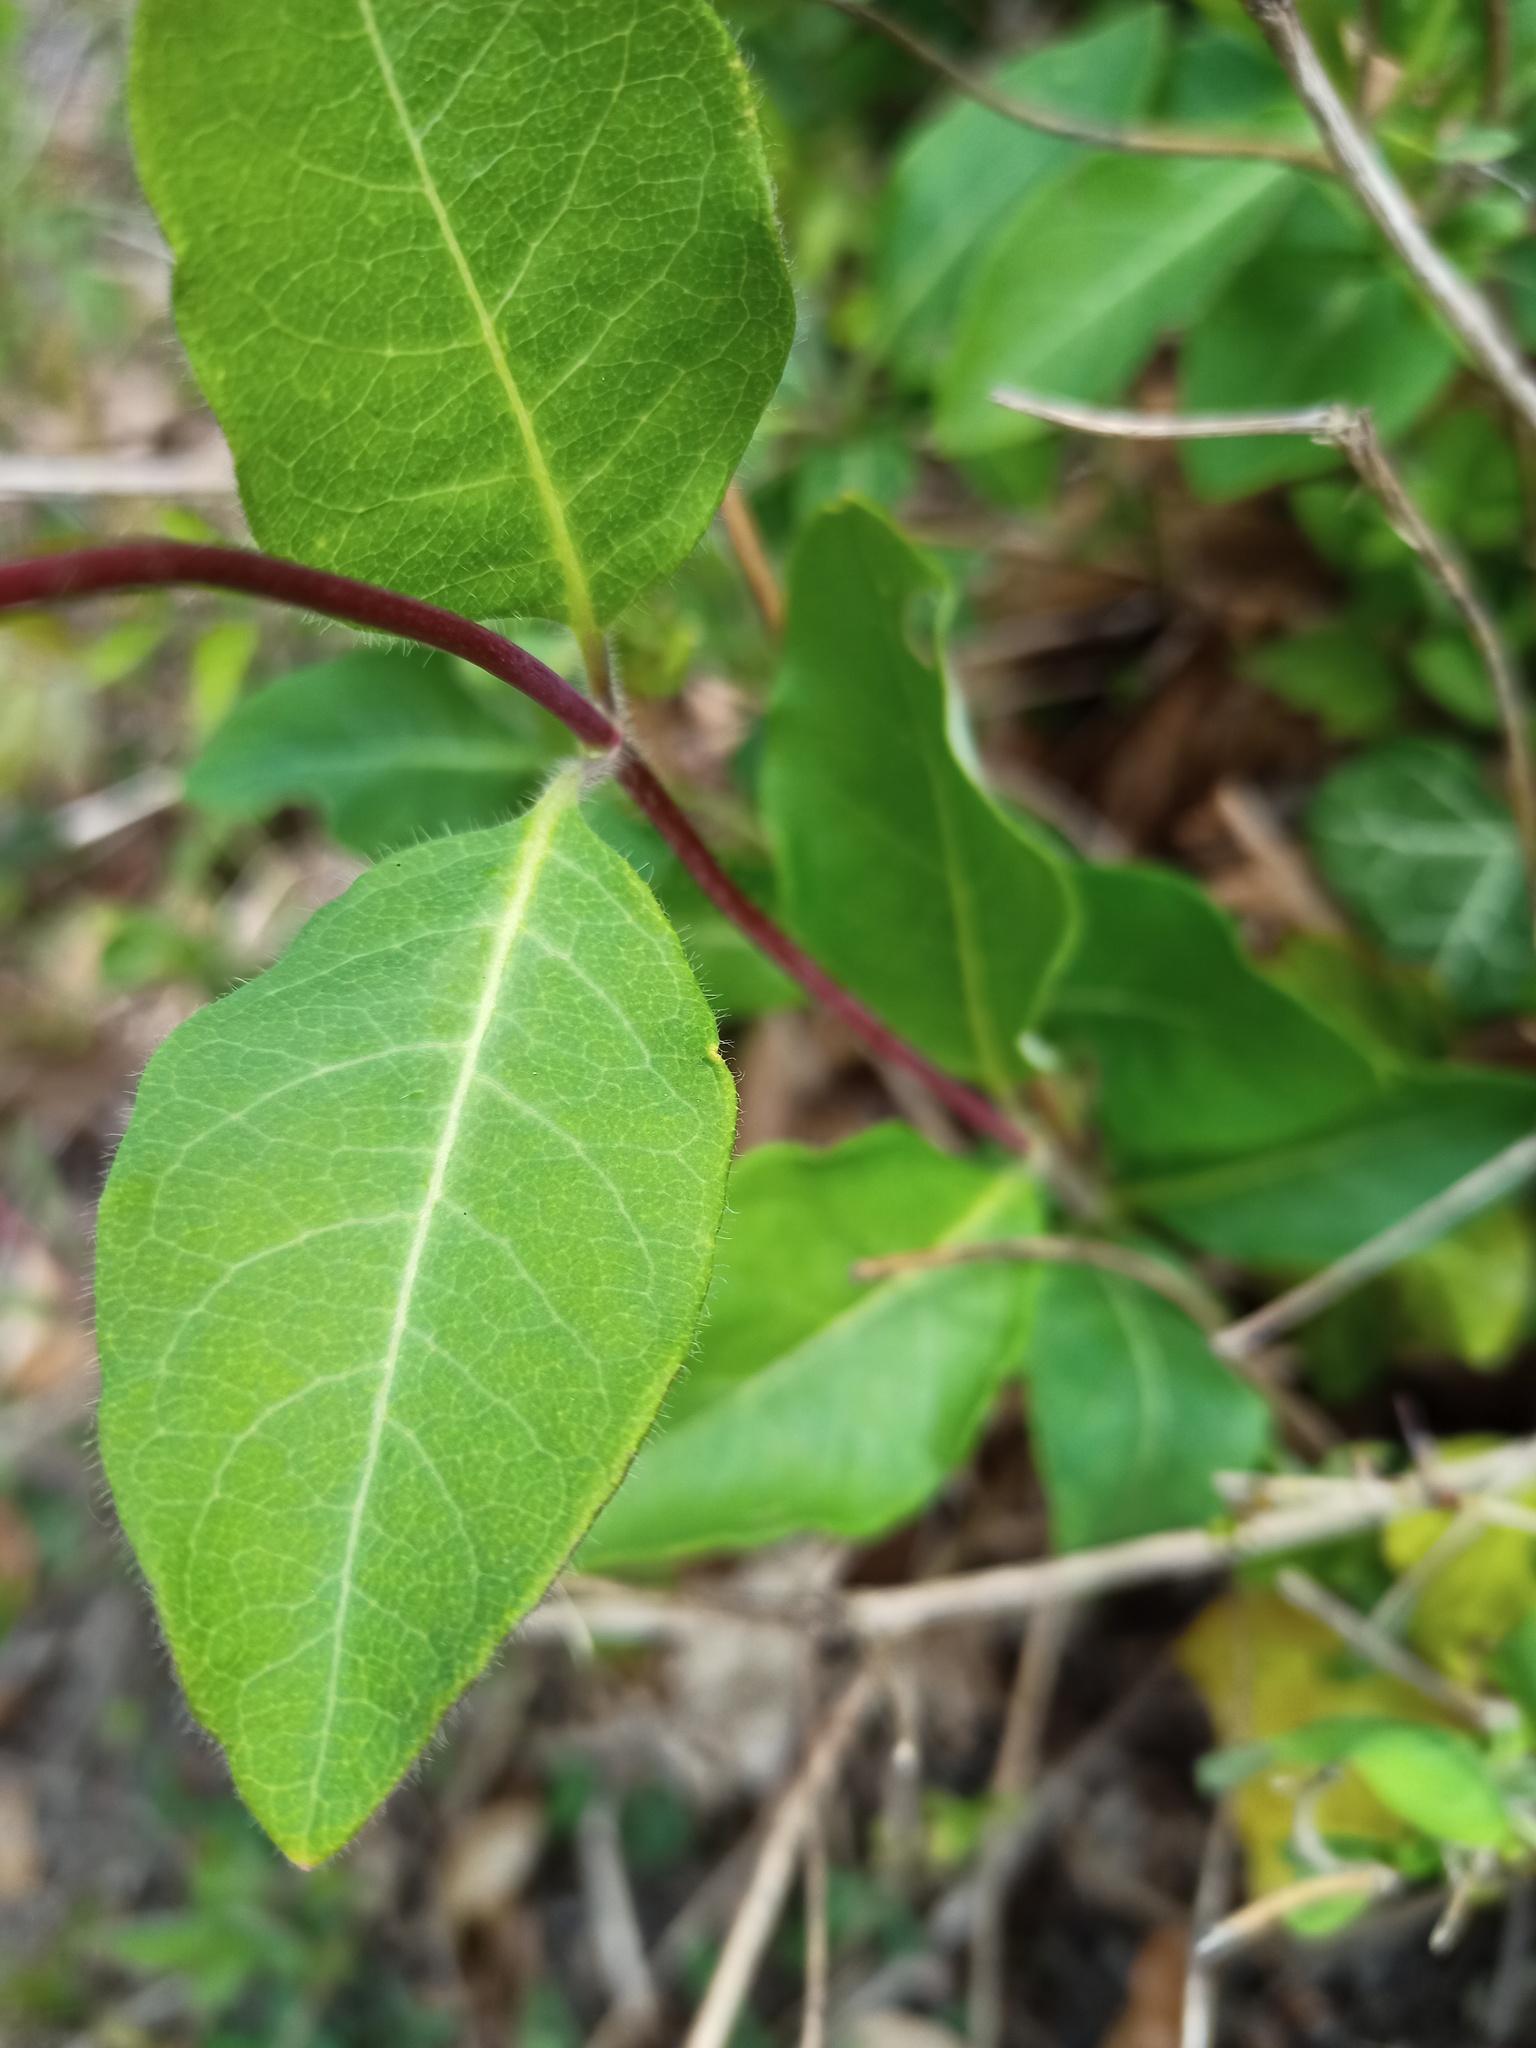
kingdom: Plantae
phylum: Tracheophyta
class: Magnoliopsida
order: Dipsacales
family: Caprifoliaceae
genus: Lonicera
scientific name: Lonicera periclymenum
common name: European honeysuckle
